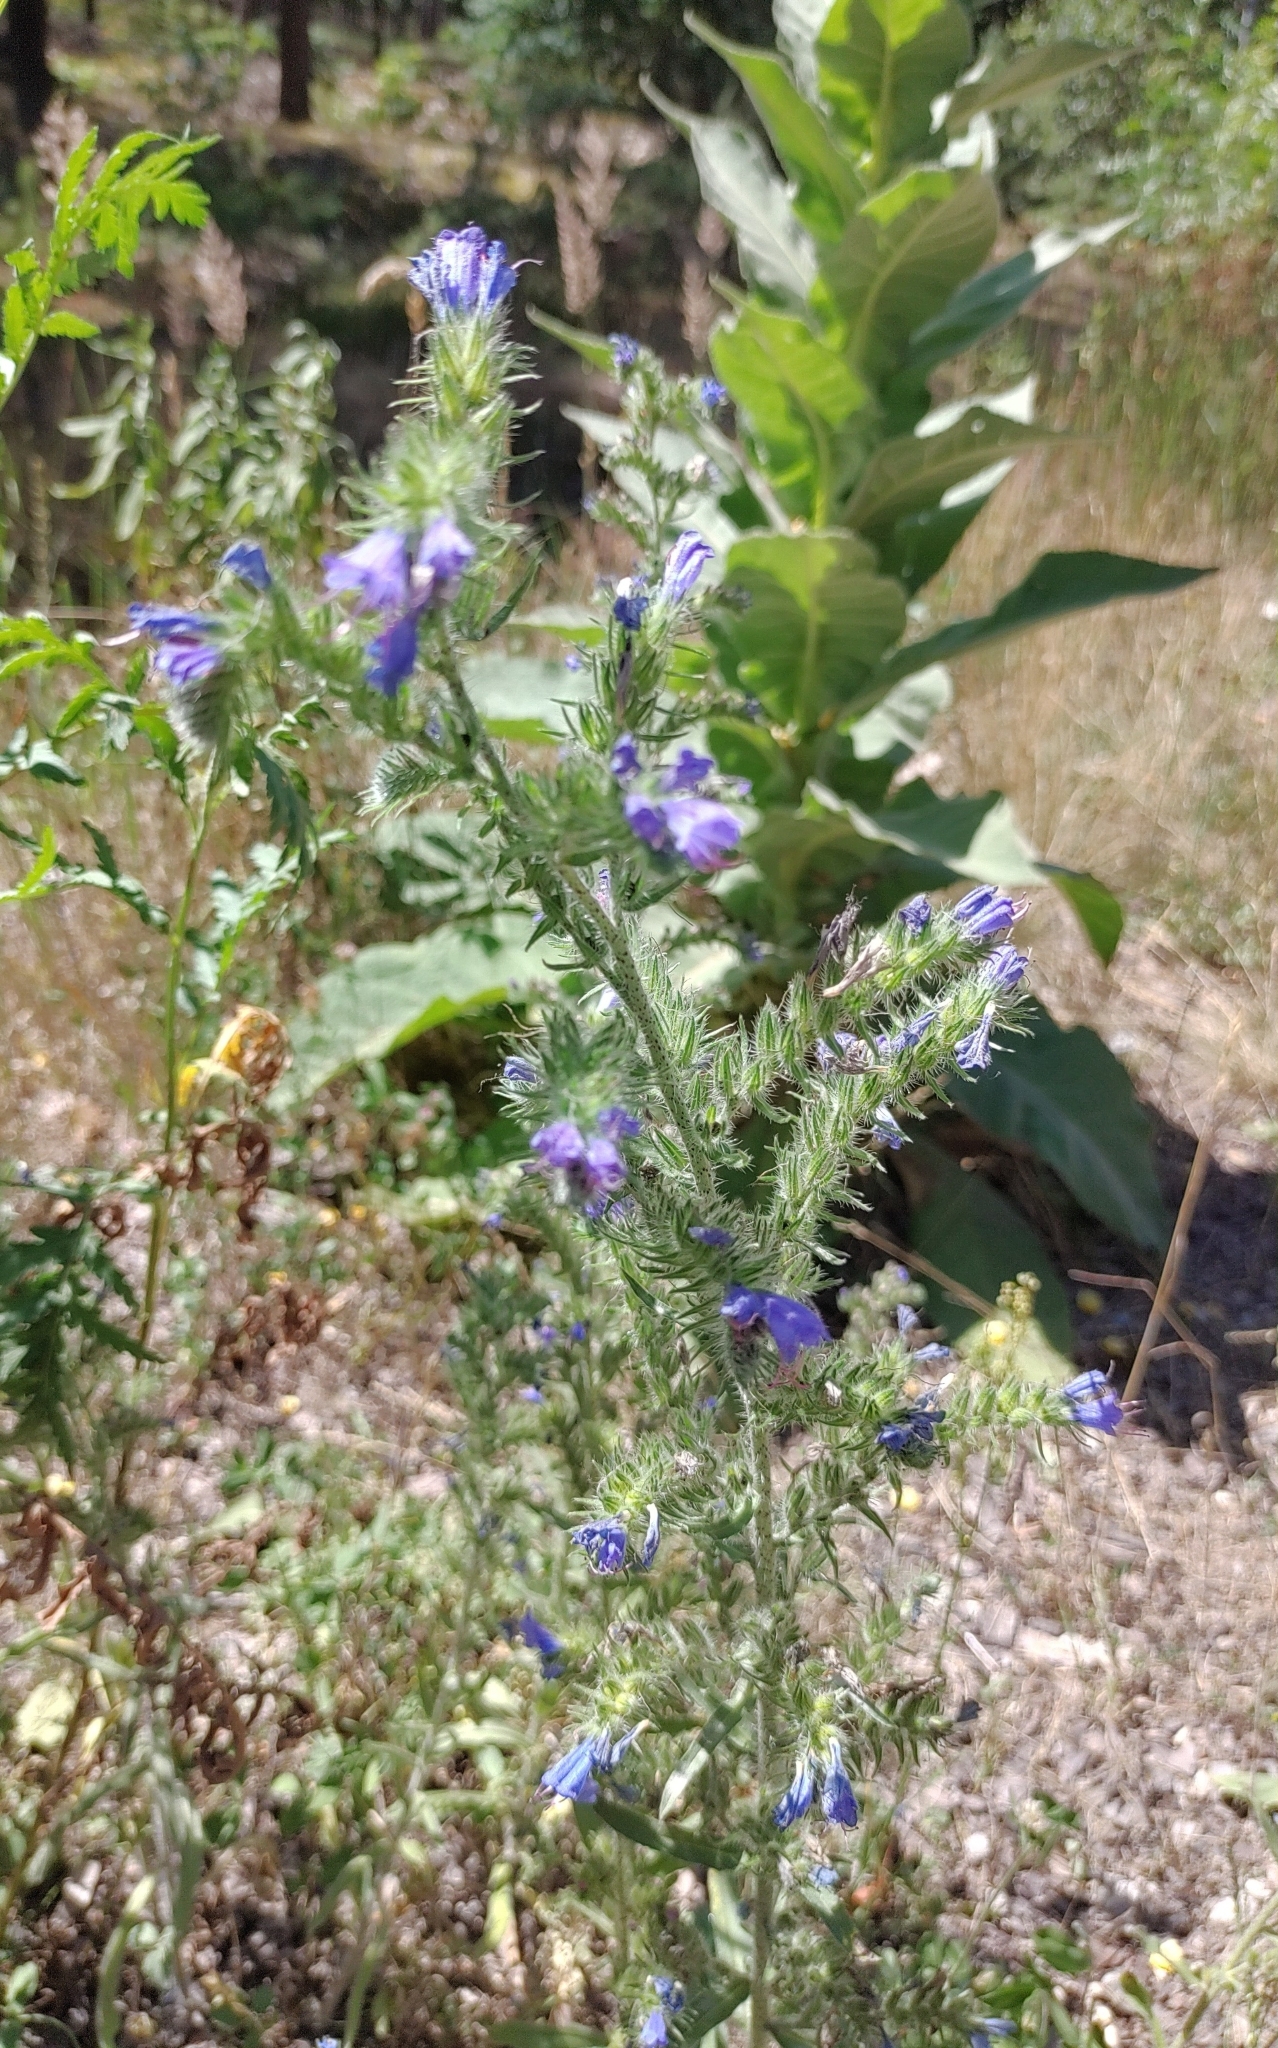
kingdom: Plantae
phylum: Tracheophyta
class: Magnoliopsida
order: Boraginales
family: Boraginaceae
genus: Echium
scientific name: Echium vulgare
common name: Common viper's bugloss
